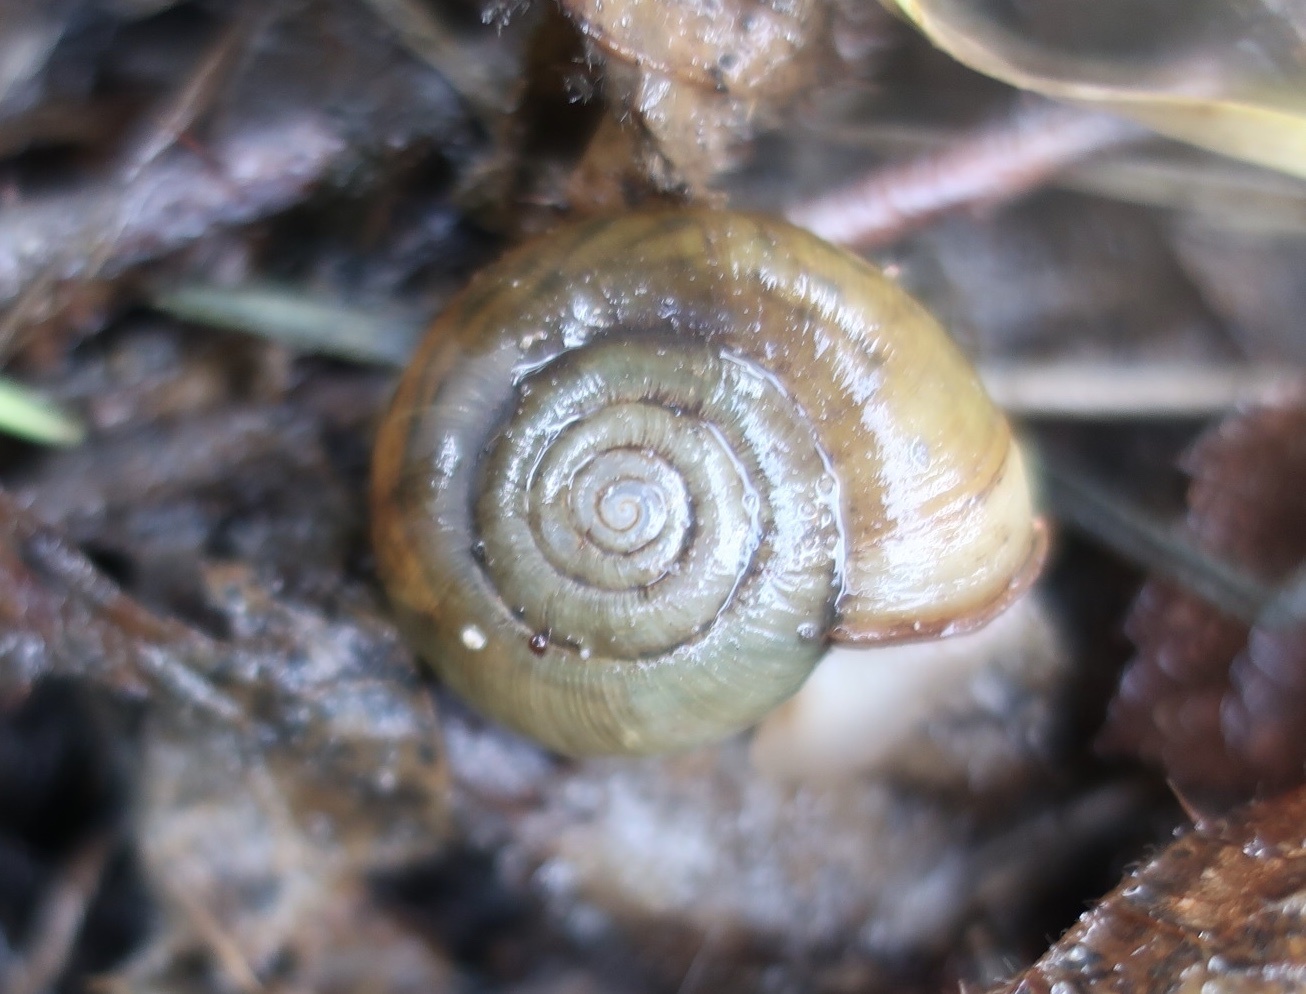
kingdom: Animalia
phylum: Mollusca
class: Gastropoda
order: Stylommatophora
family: Haplotrematidae
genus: Haplotrema
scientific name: Haplotrema minimum
